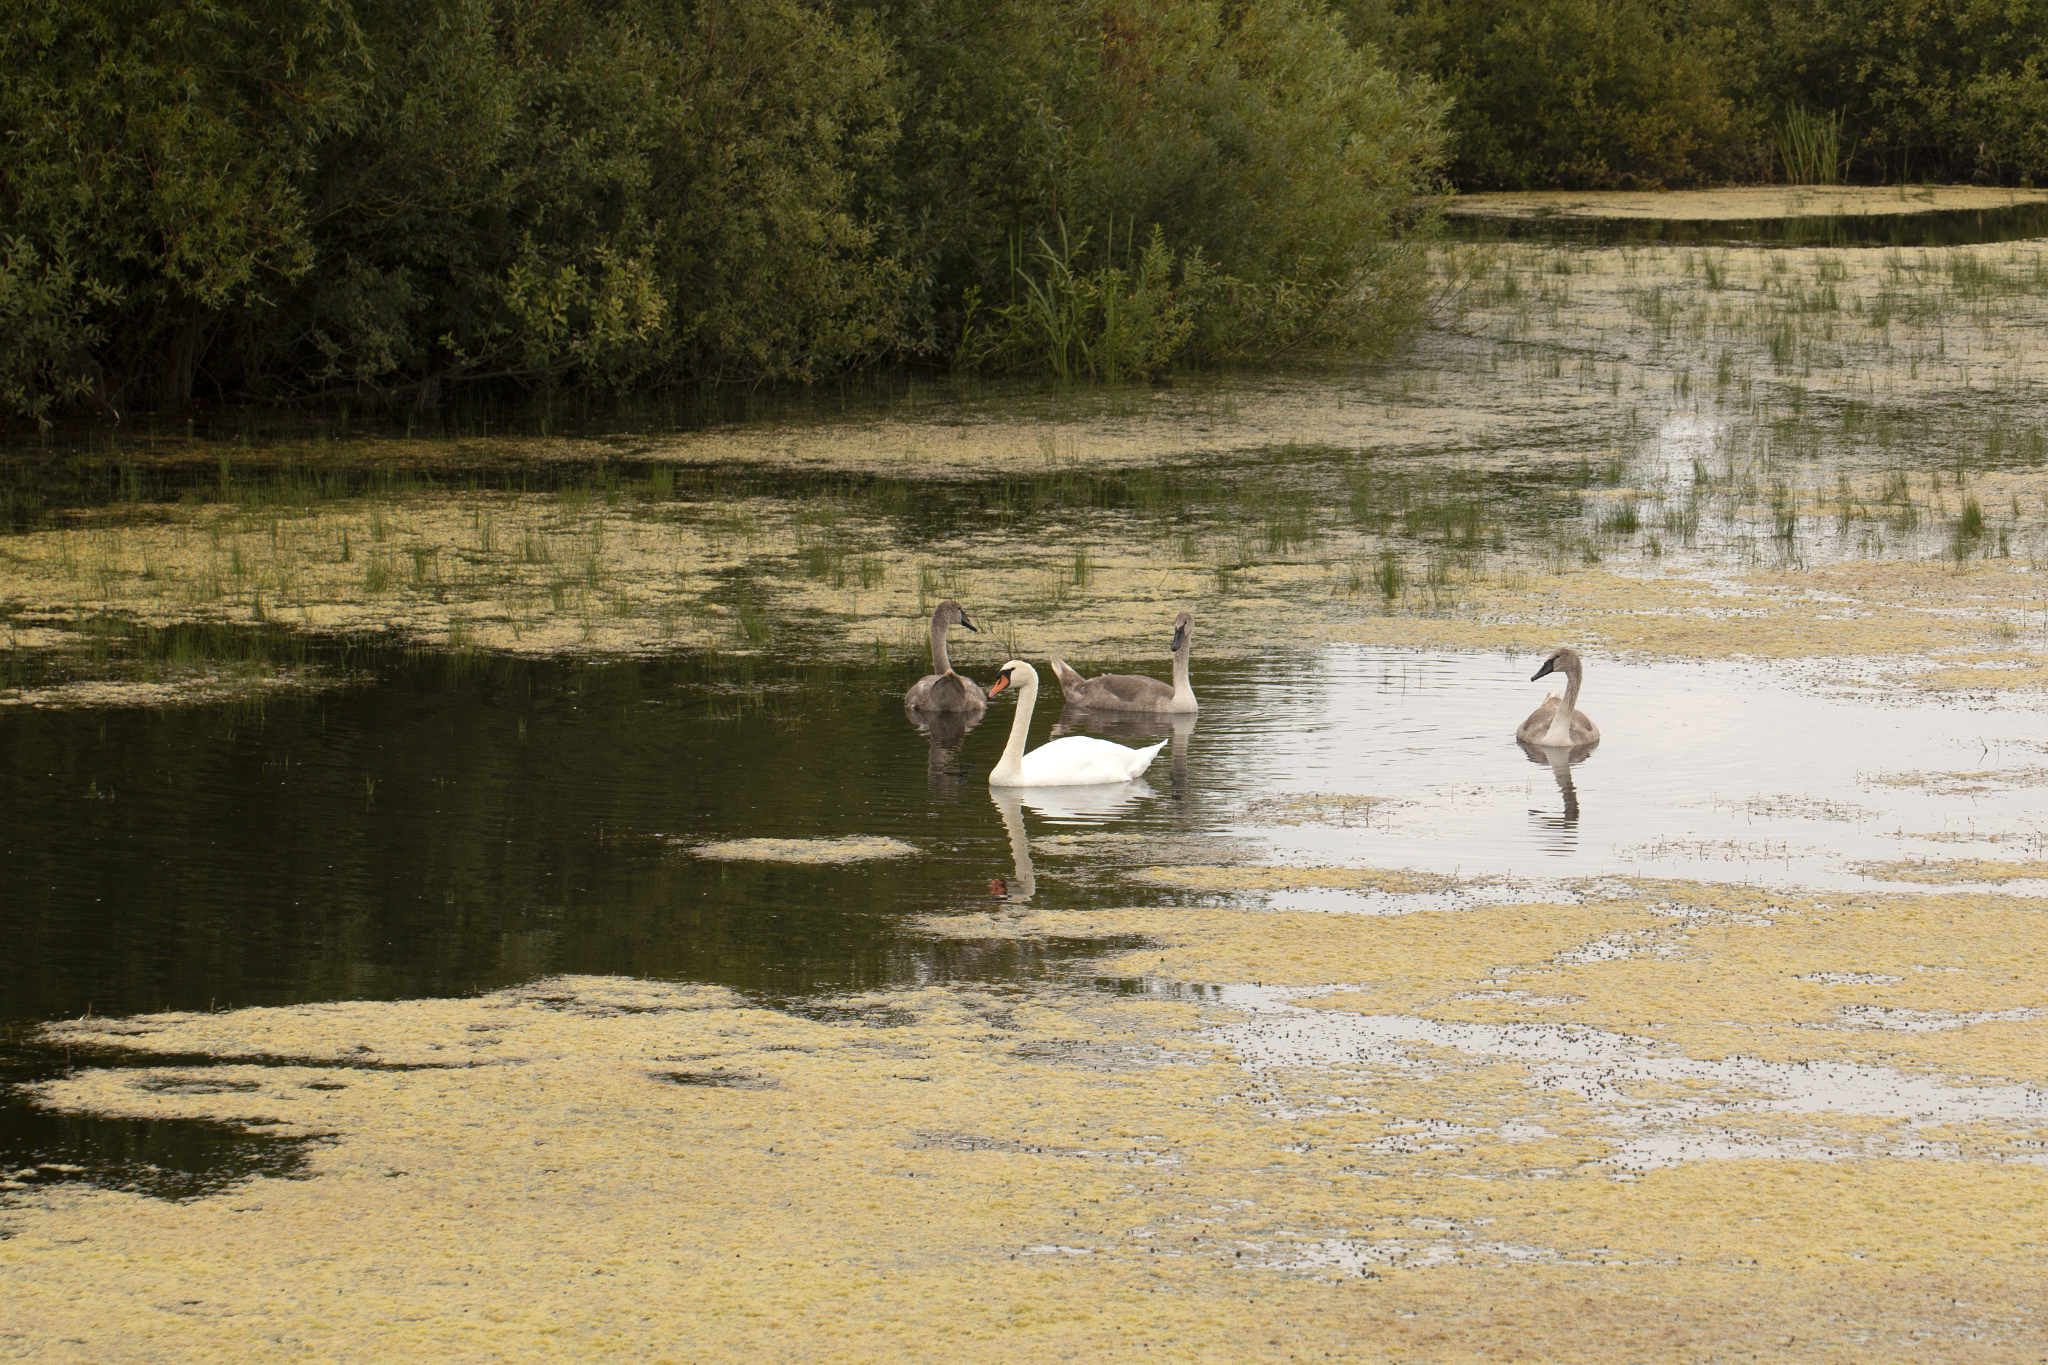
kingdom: Animalia
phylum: Chordata
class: Aves
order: Anseriformes
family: Anatidae
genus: Cygnus
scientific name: Cygnus olor
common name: Mute swan
